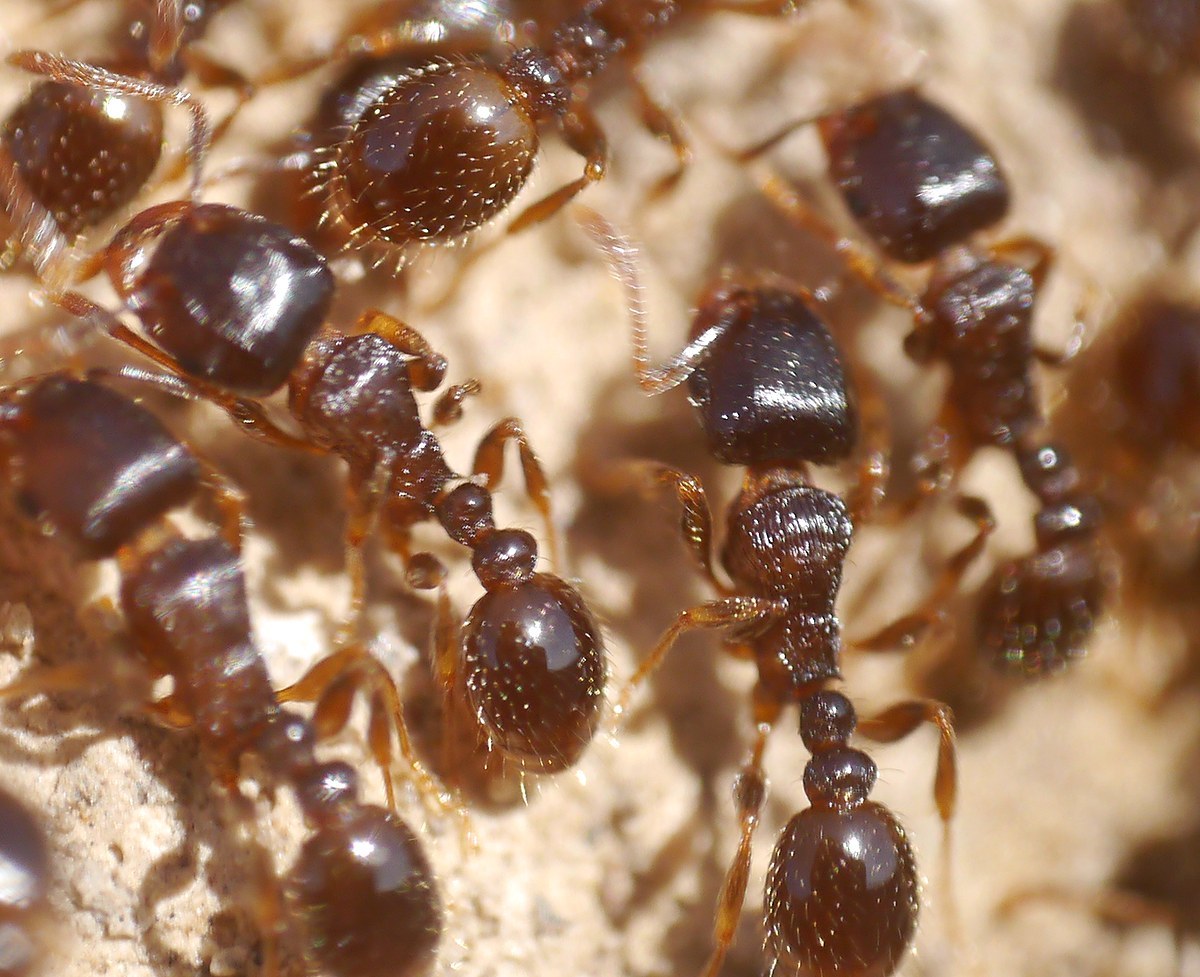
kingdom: Animalia
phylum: Arthropoda
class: Insecta
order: Hymenoptera
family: Formicidae
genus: Tetramorium
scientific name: Tetramorium caespitum
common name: Pavement ant
